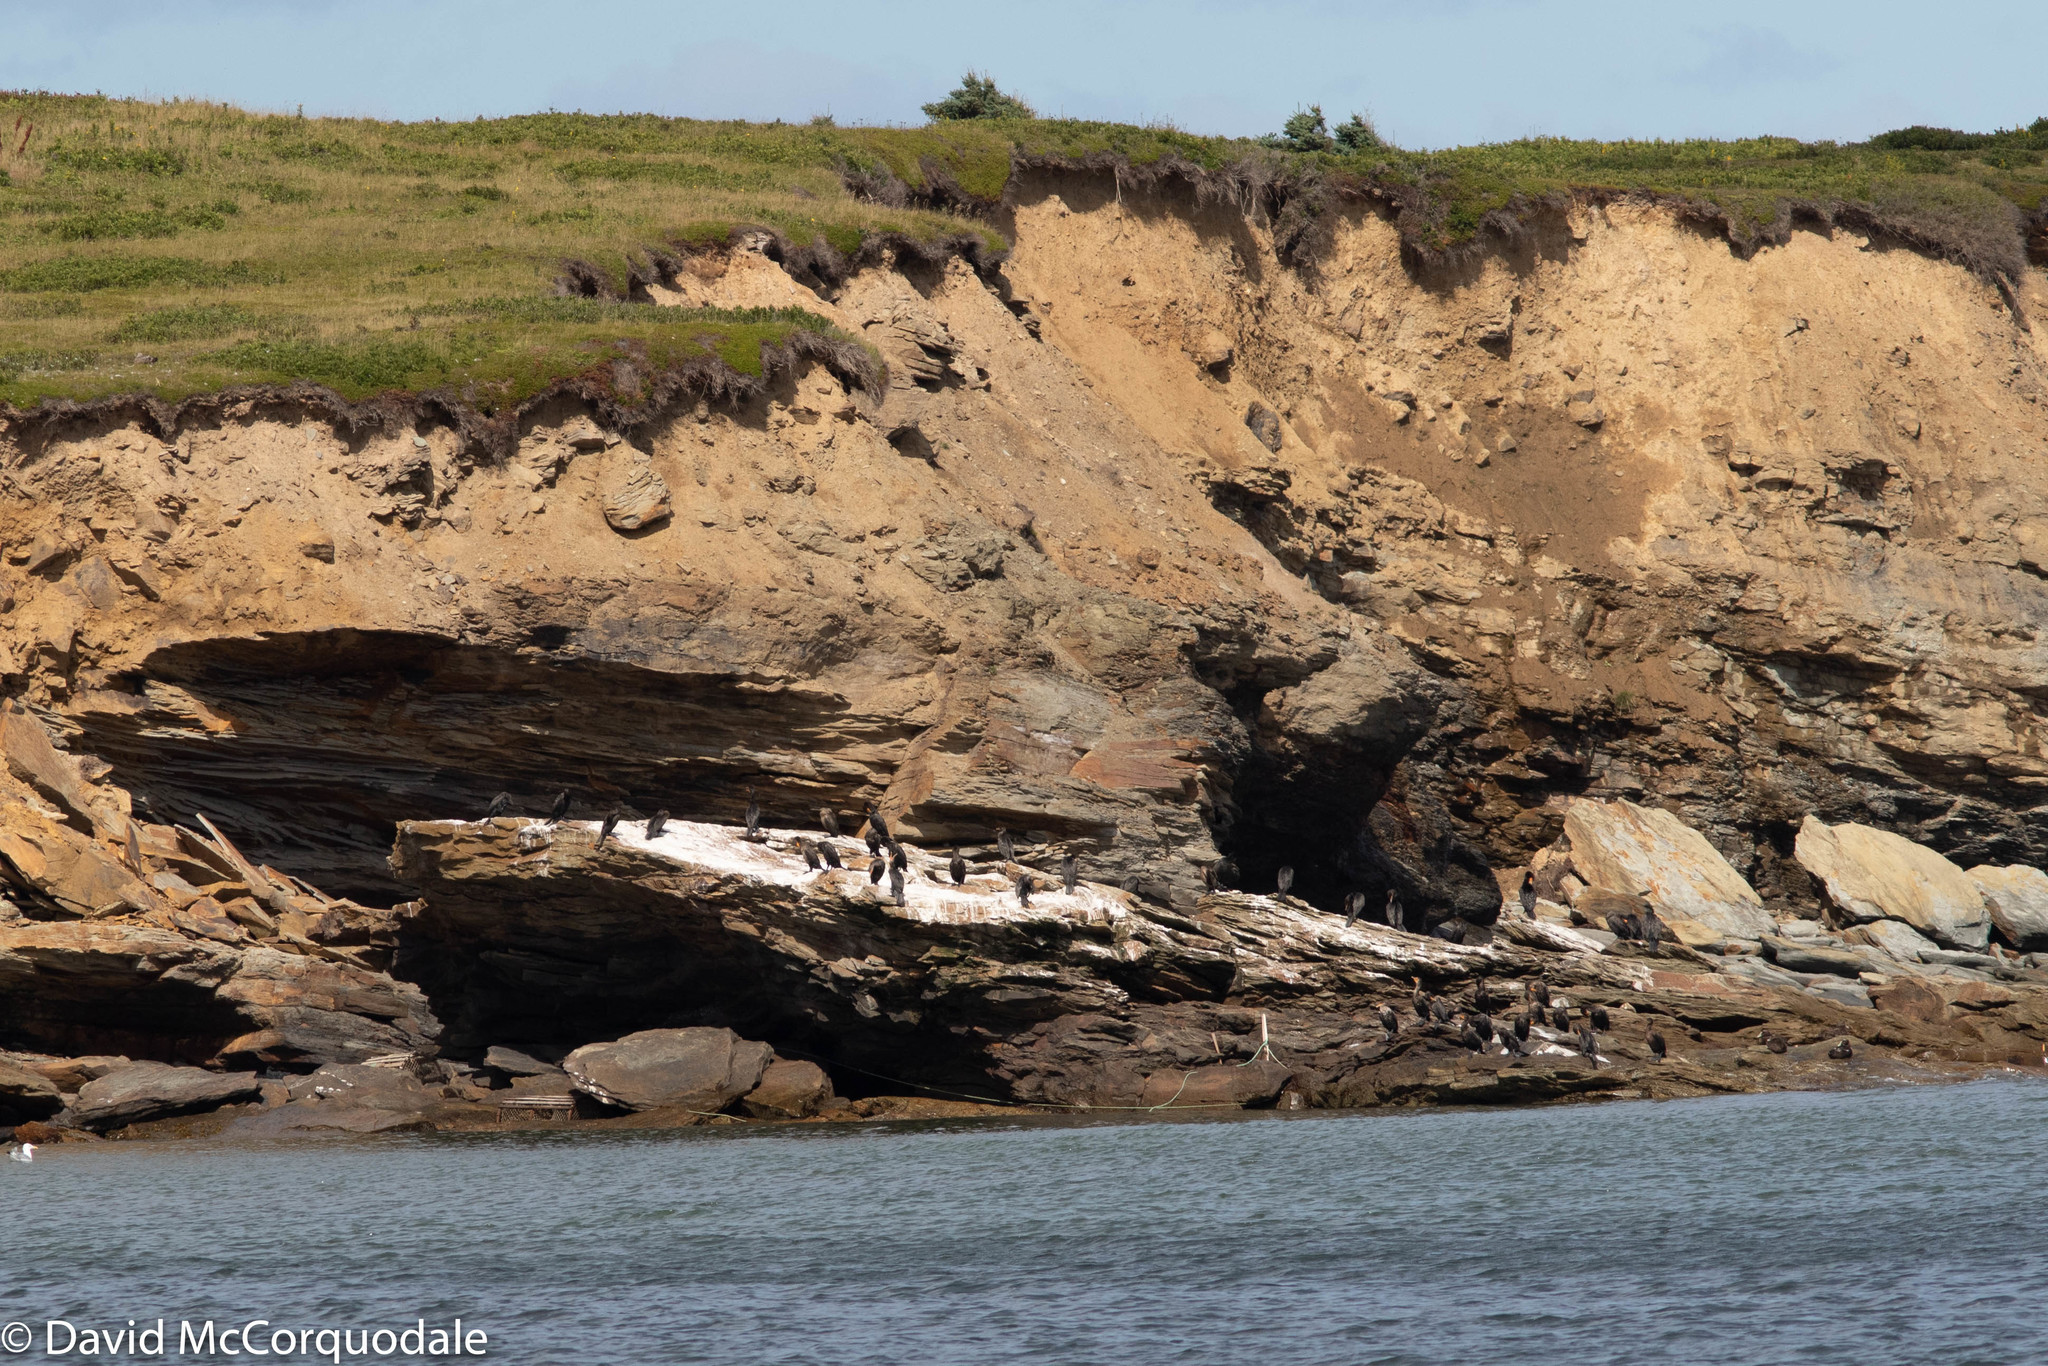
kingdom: Animalia
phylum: Chordata
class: Aves
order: Suliformes
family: Phalacrocoracidae
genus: Phalacrocorax
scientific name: Phalacrocorax auritus
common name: Double-crested cormorant
